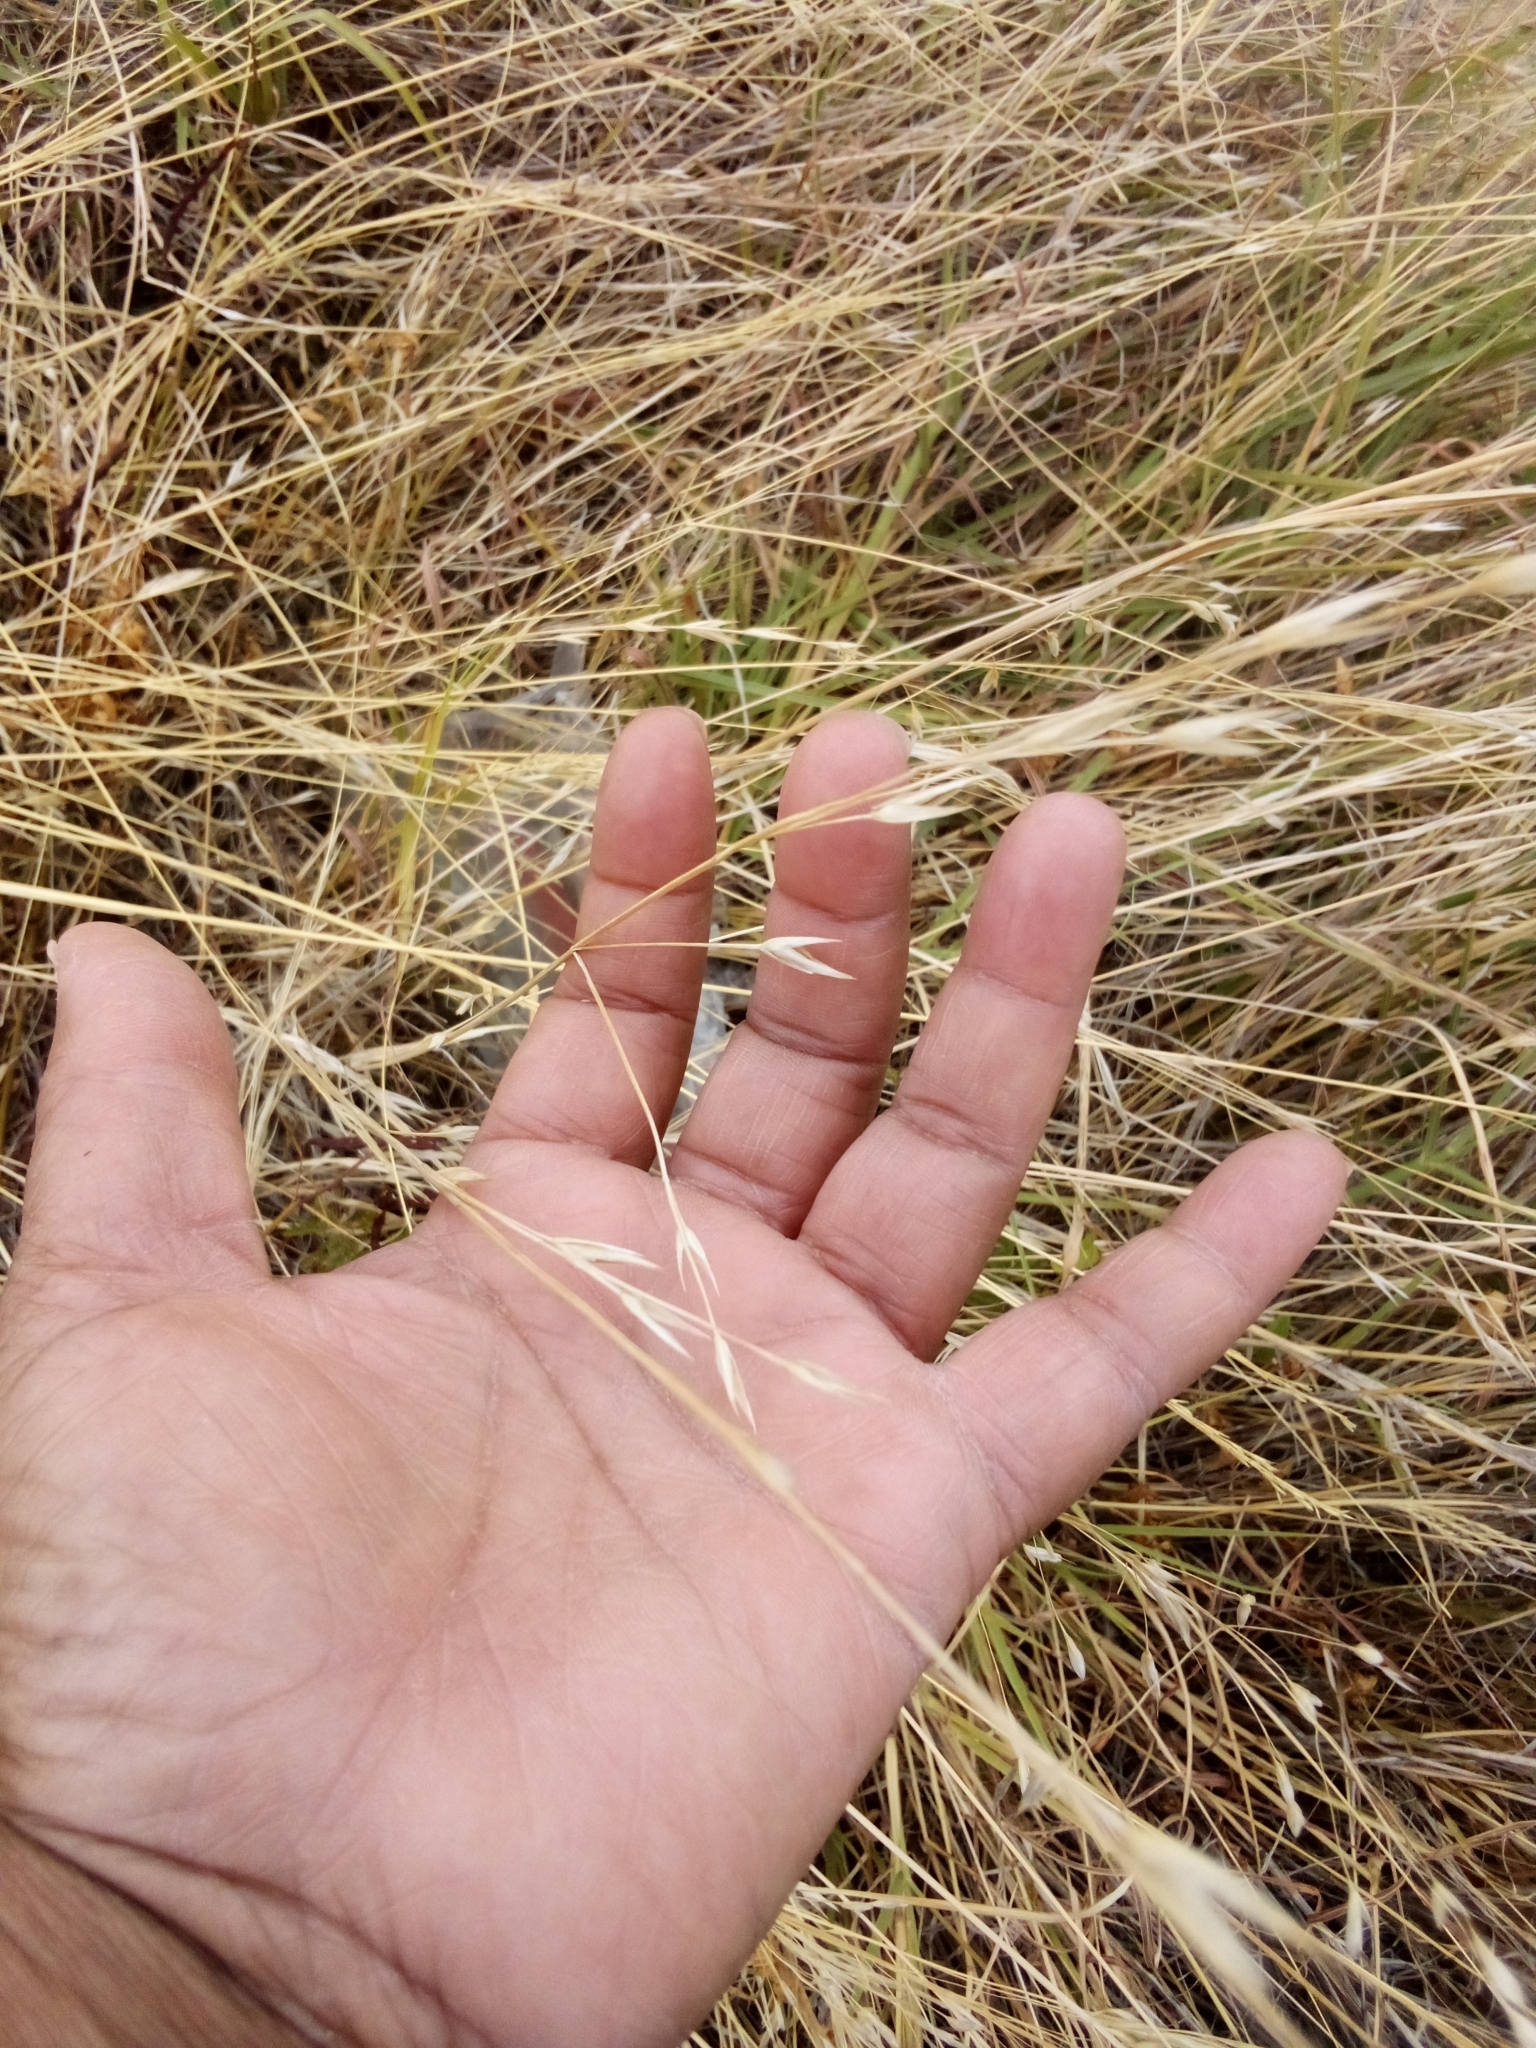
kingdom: Plantae
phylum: Tracheophyta
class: Liliopsida
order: Poales
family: Poaceae
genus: Bromus
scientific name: Bromus catharticus
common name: Rescuegrass
